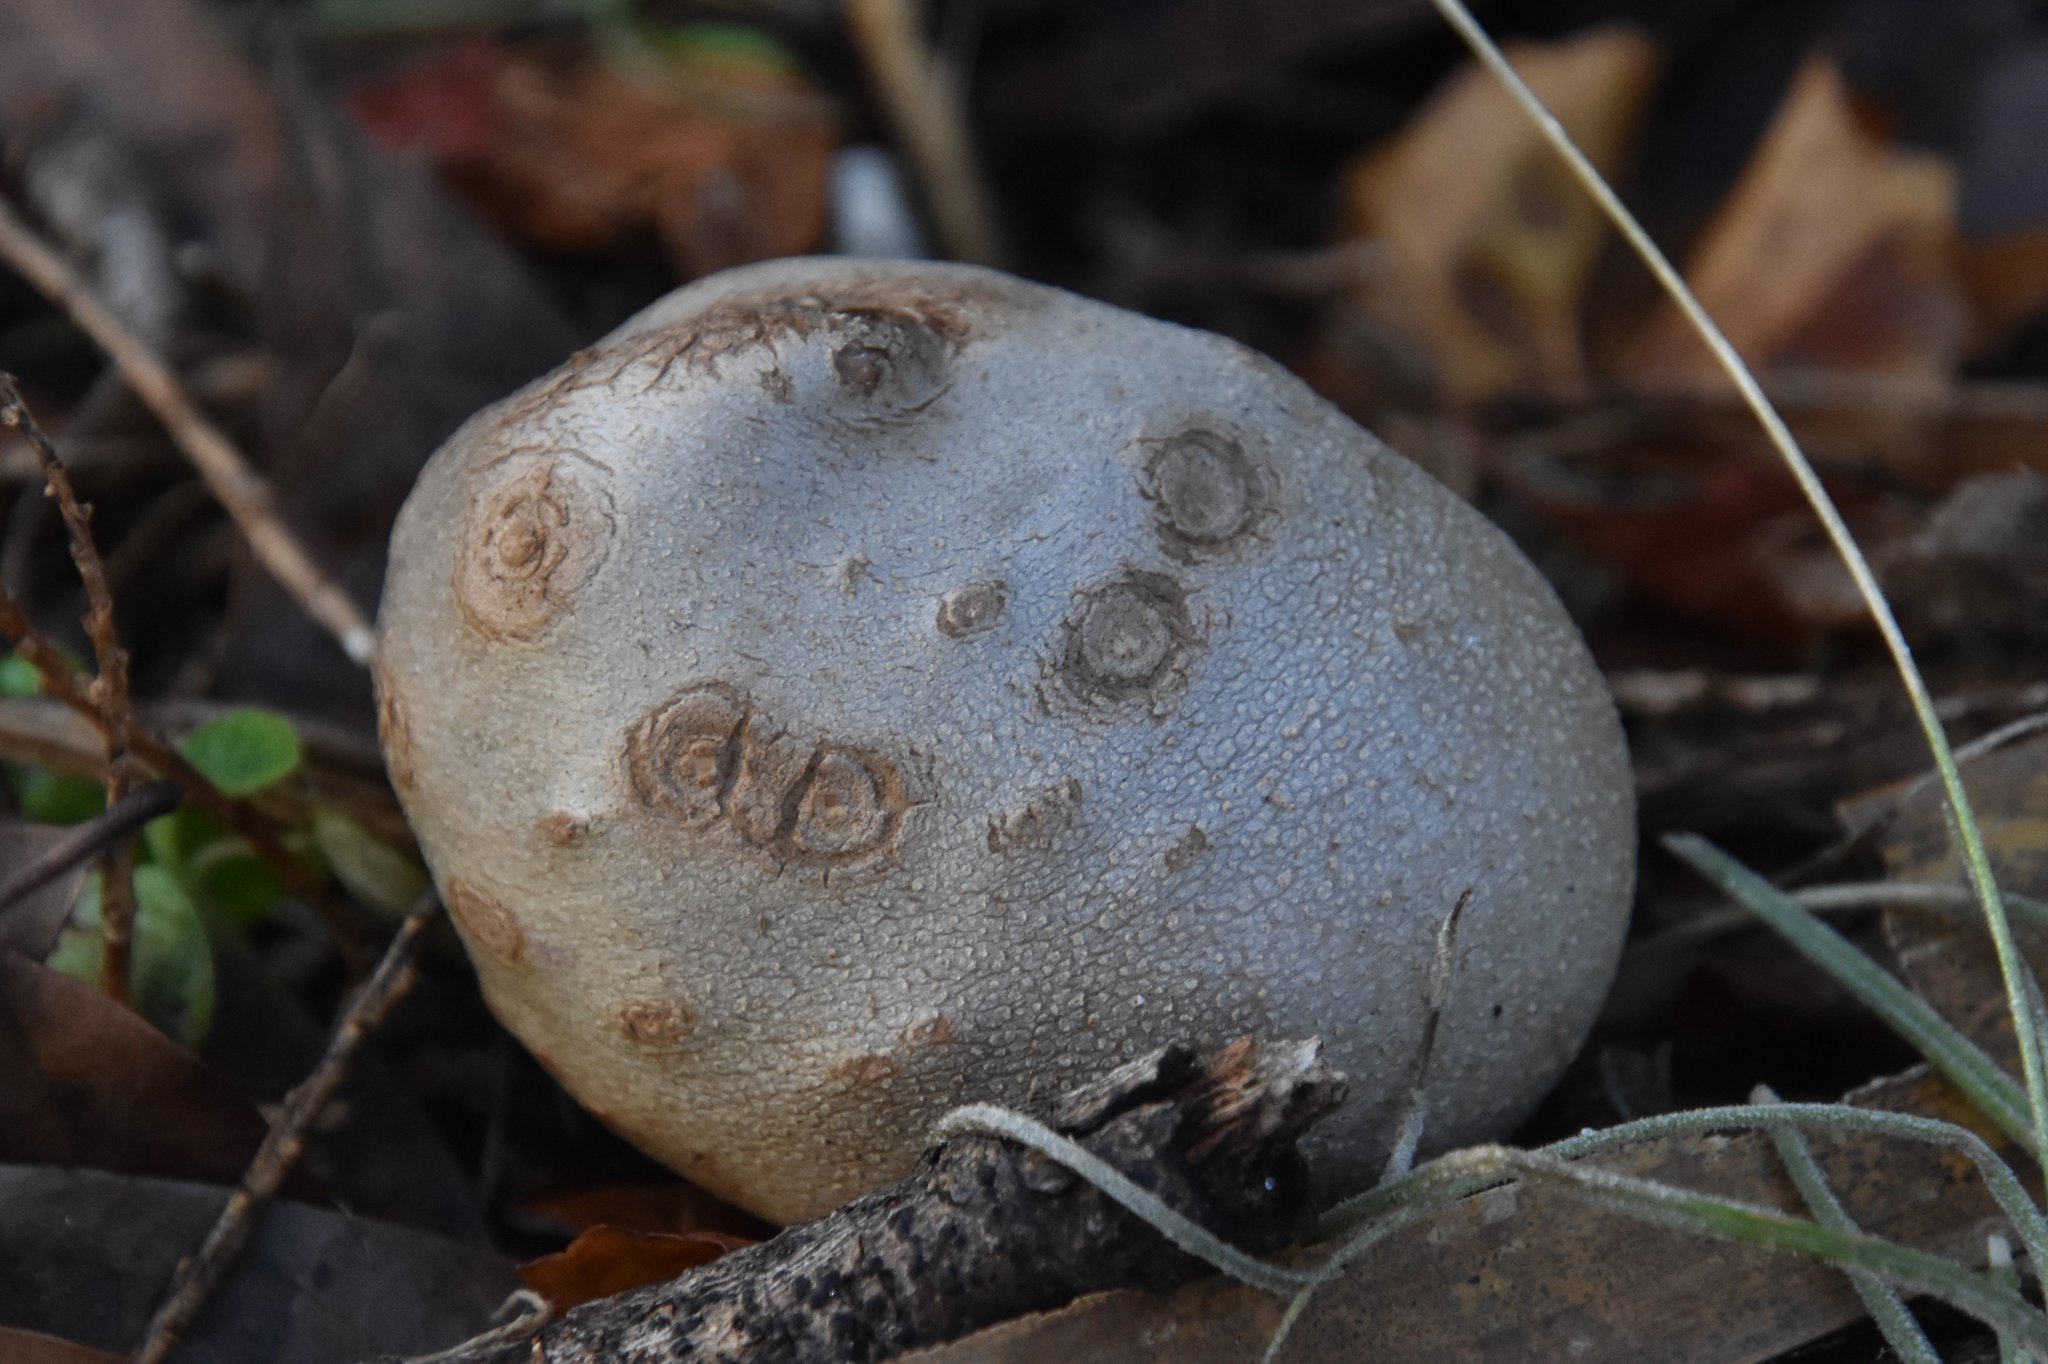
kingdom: Plantae
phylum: Tracheophyta
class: Liliopsida
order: Dioscoreales
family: Dioscoreaceae
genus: Dioscorea
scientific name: Dioscorea bulbifera
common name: Air yam
